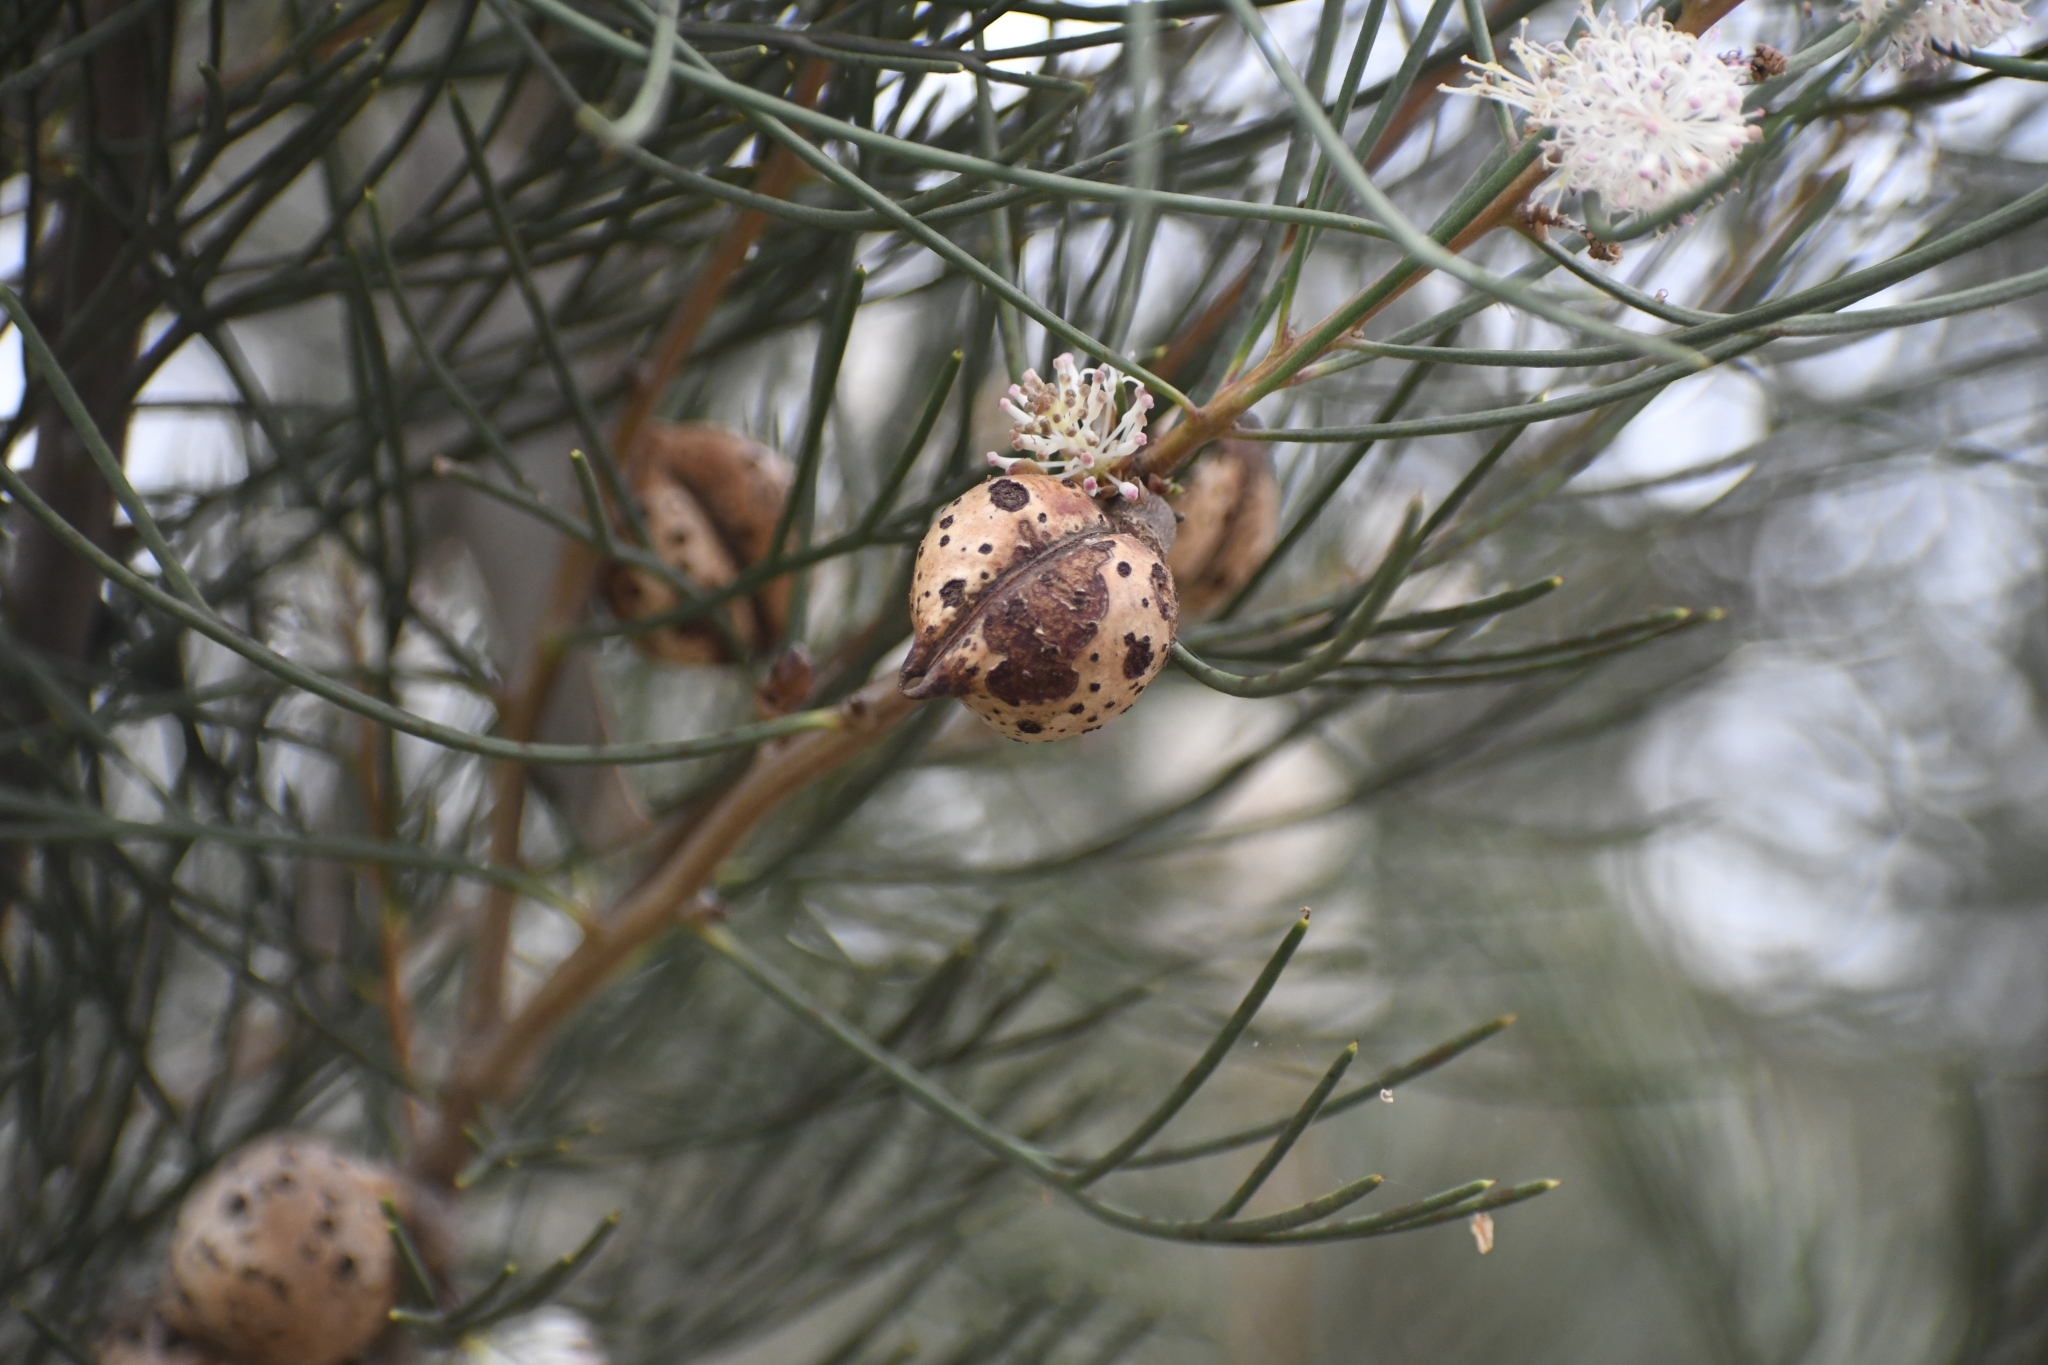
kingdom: Plantae
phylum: Tracheophyta
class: Magnoliopsida
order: Proteales
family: Proteaceae
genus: Hakea
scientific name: Hakea drupacea
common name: Sweet hakea
